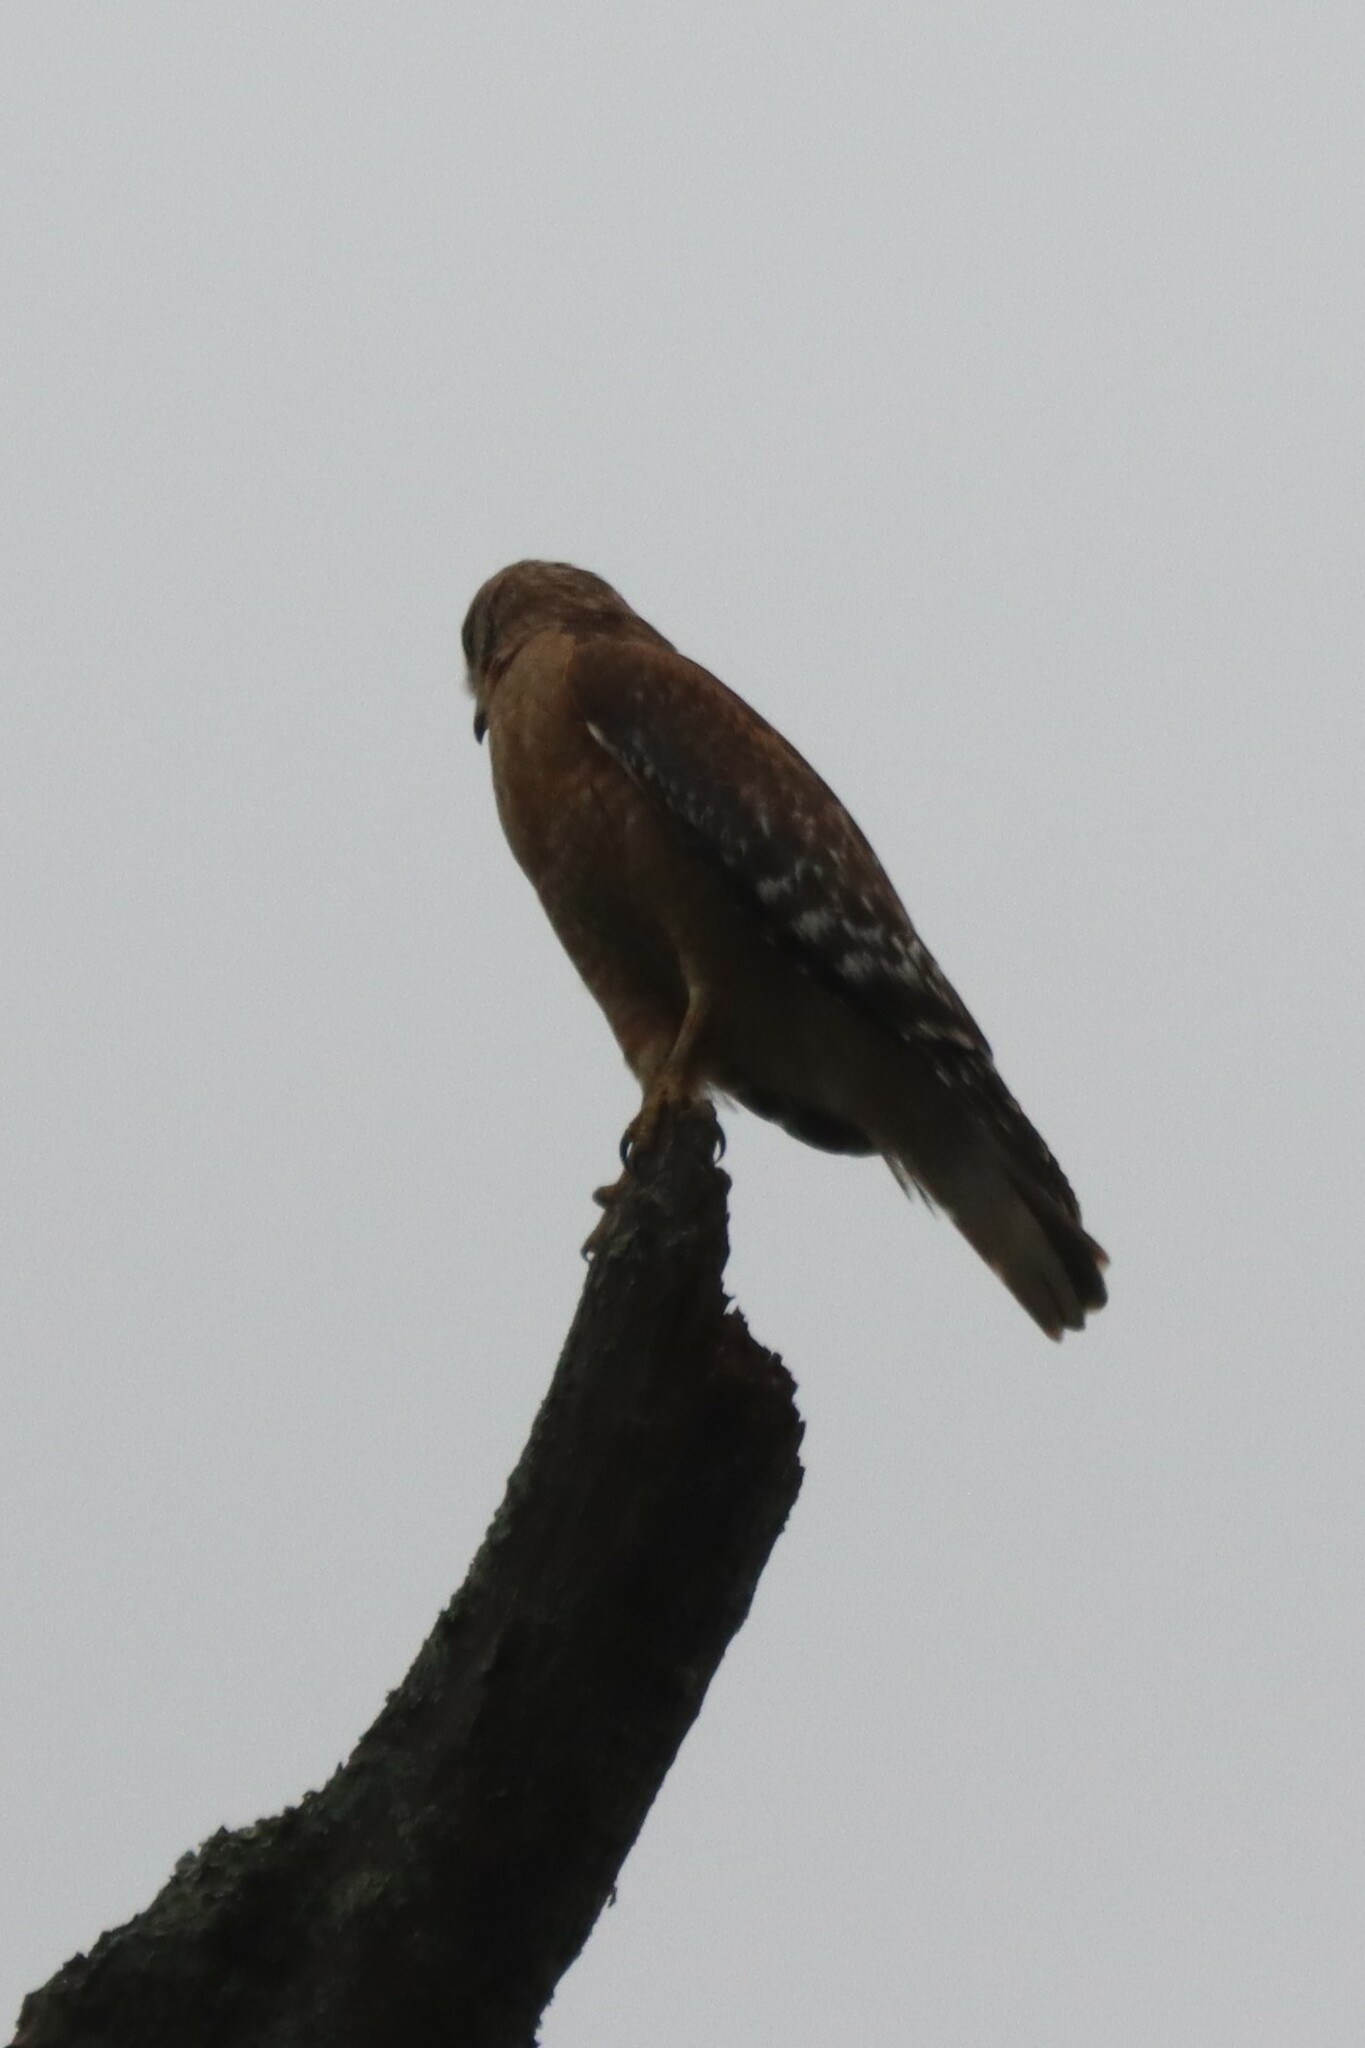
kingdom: Animalia
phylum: Chordata
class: Aves
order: Accipitriformes
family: Accipitridae
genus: Buteo
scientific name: Buteo lineatus
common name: Red-shouldered hawk
